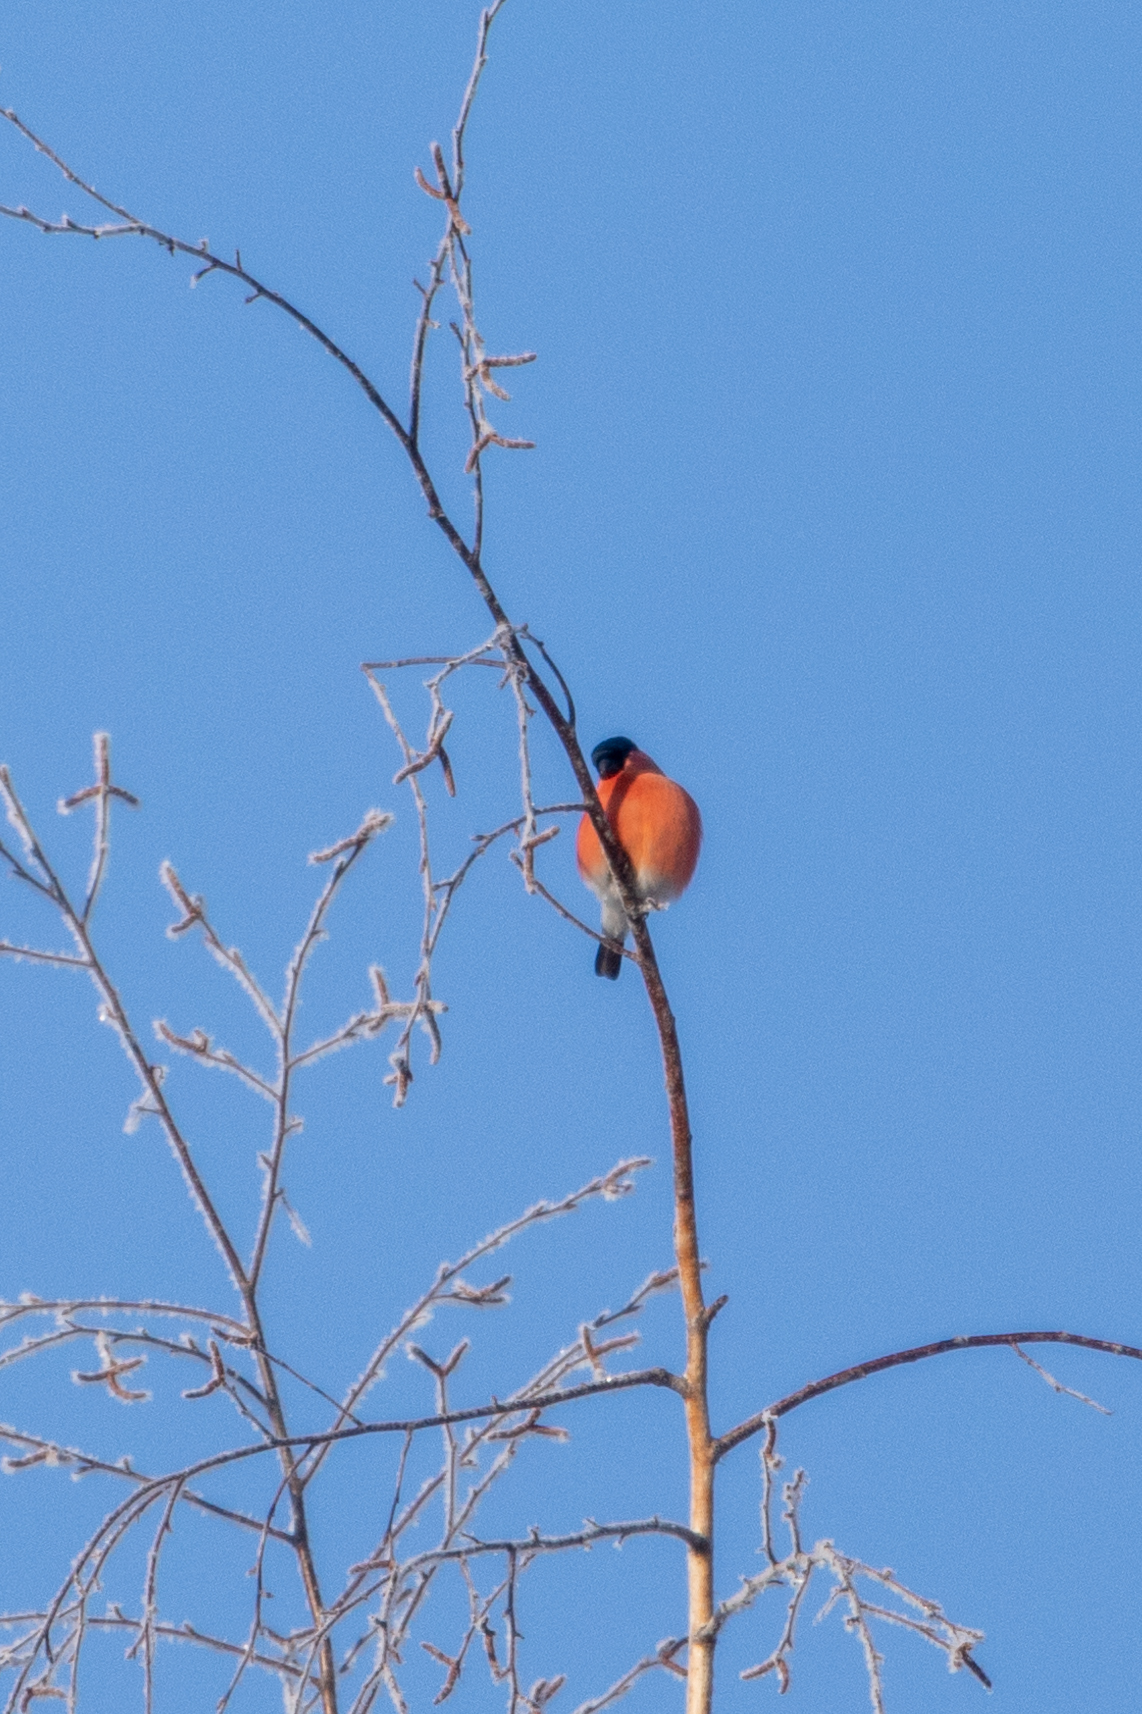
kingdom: Animalia
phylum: Chordata
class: Aves
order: Passeriformes
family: Fringillidae
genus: Pyrrhula
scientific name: Pyrrhula pyrrhula
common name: Eurasian bullfinch
